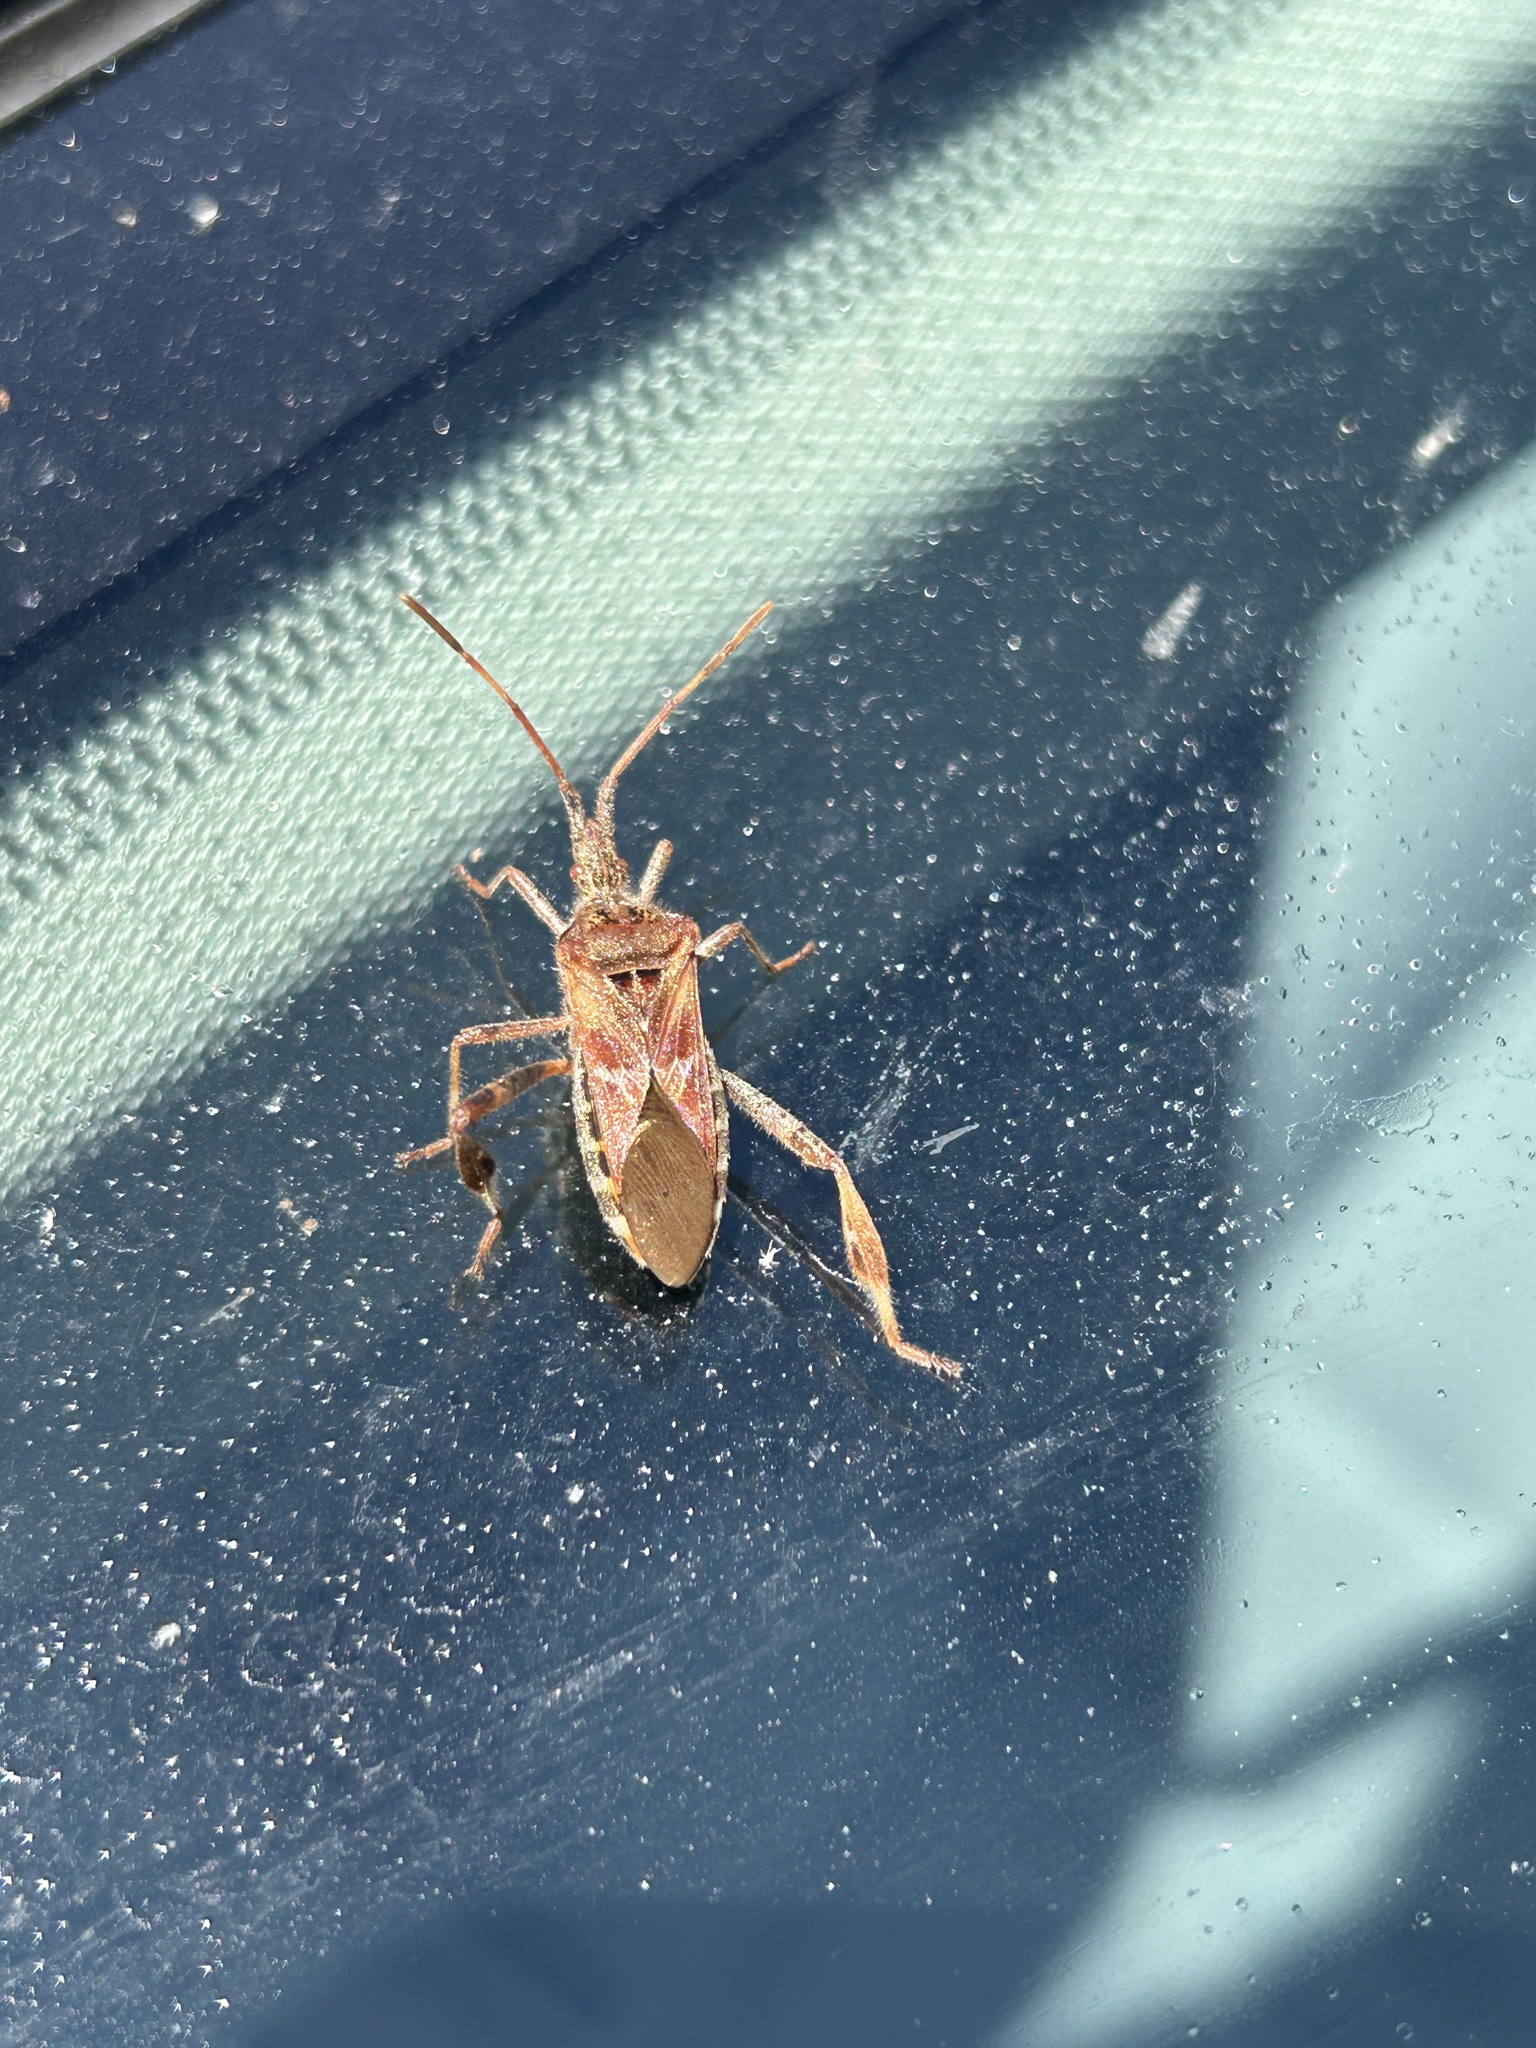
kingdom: Animalia
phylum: Arthropoda
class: Insecta
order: Hemiptera
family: Coreidae
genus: Leptoglossus
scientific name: Leptoglossus occidentalis
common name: Western conifer-seed bug
